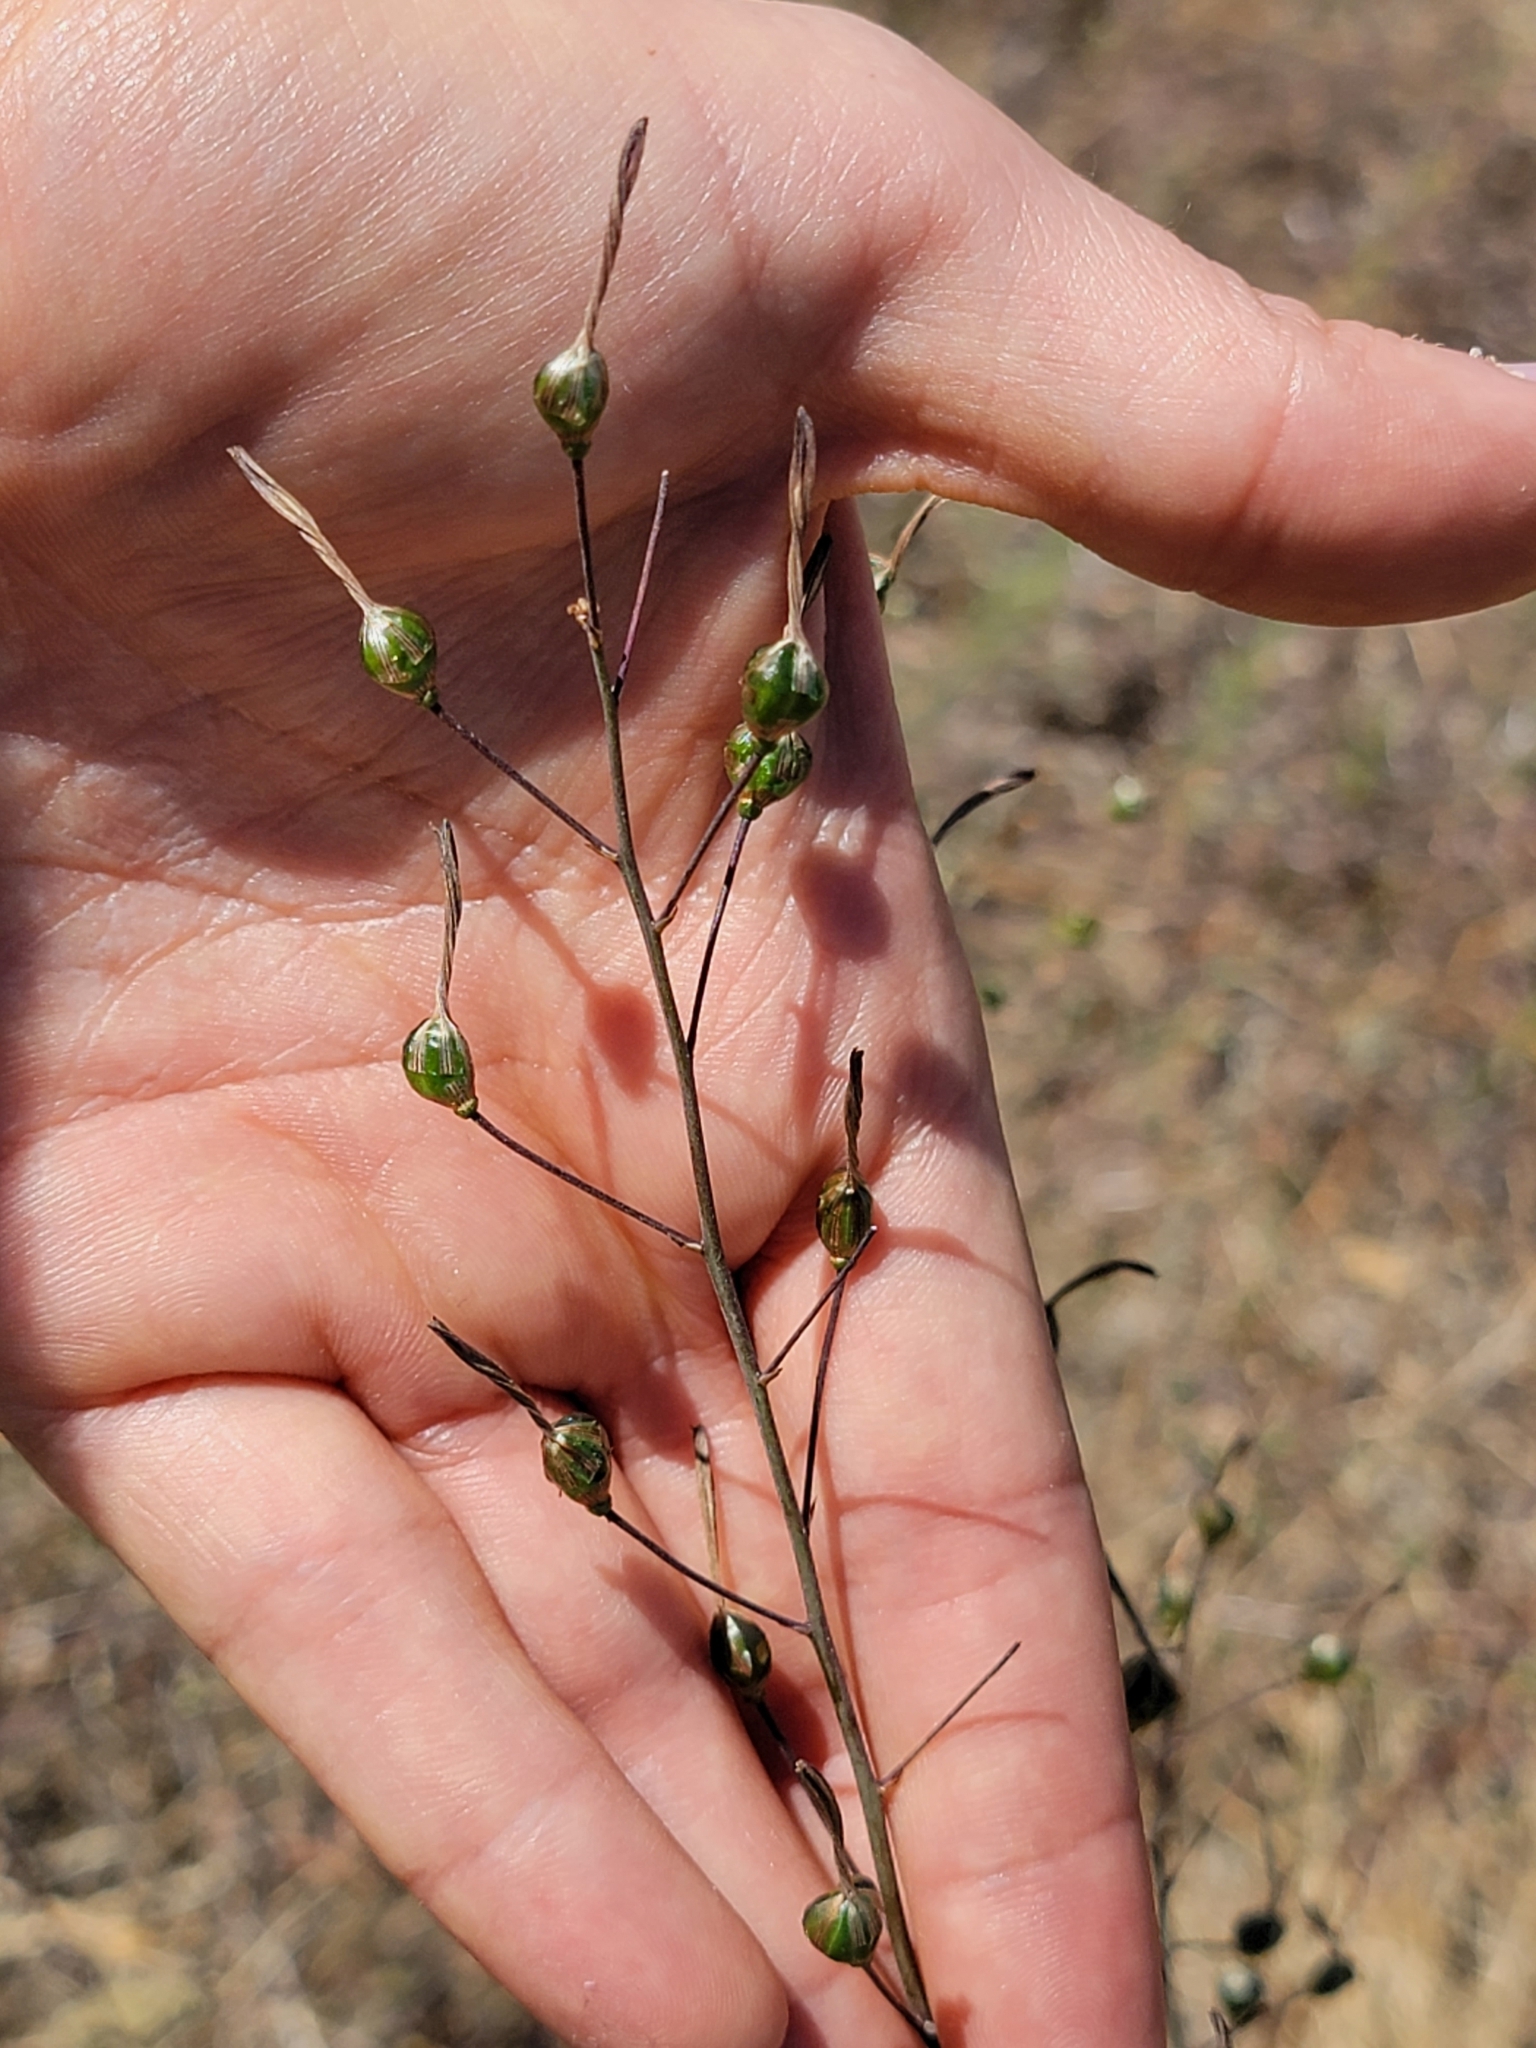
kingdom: Plantae
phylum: Tracheophyta
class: Liliopsida
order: Asparagales
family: Asparagaceae
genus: Chlorogalum
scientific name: Chlorogalum pomeridianum
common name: Amole
